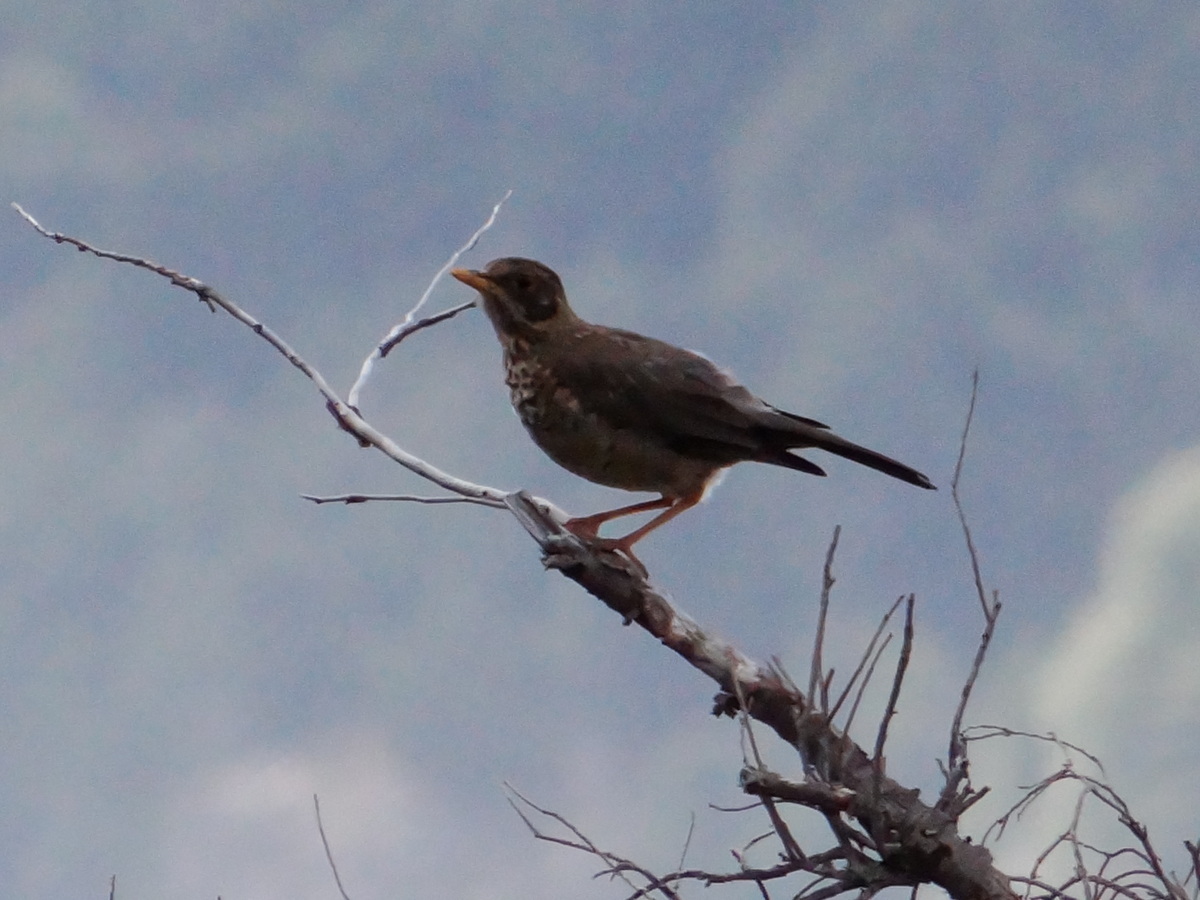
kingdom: Animalia
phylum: Chordata
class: Aves
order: Passeriformes
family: Turdidae
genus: Turdus
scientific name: Turdus falcklandii
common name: Austral thrush
